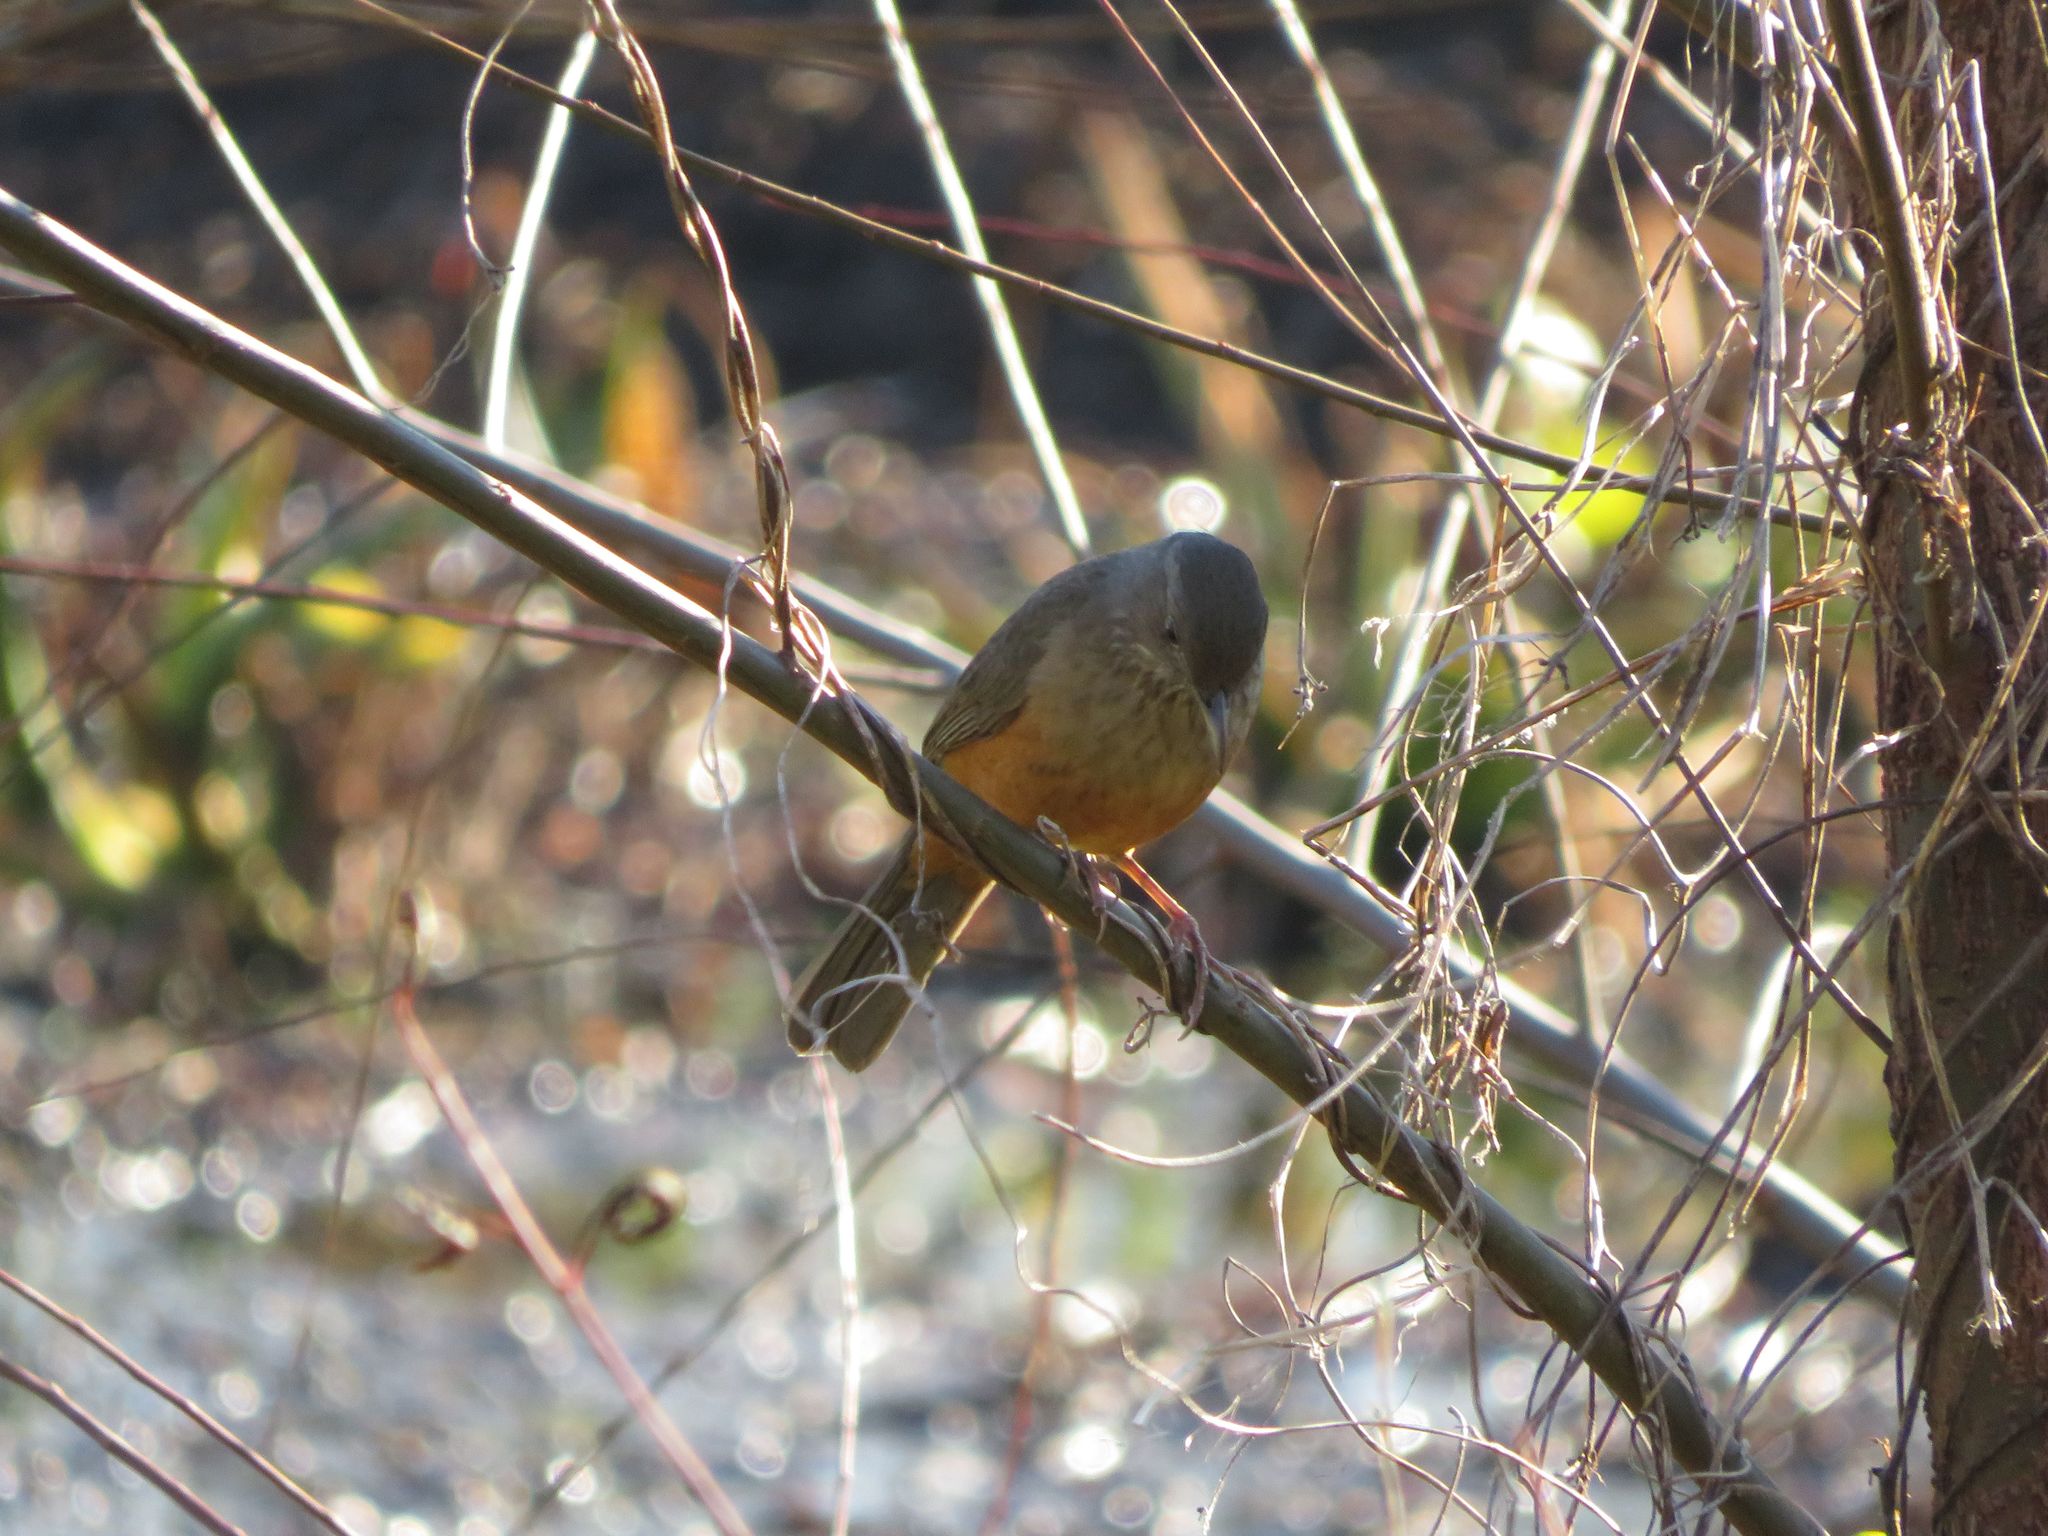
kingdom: Animalia
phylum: Chordata
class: Aves
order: Passeriformes
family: Turdidae
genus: Turdus
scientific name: Turdus rufiventris
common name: Rufous-bellied thrush
